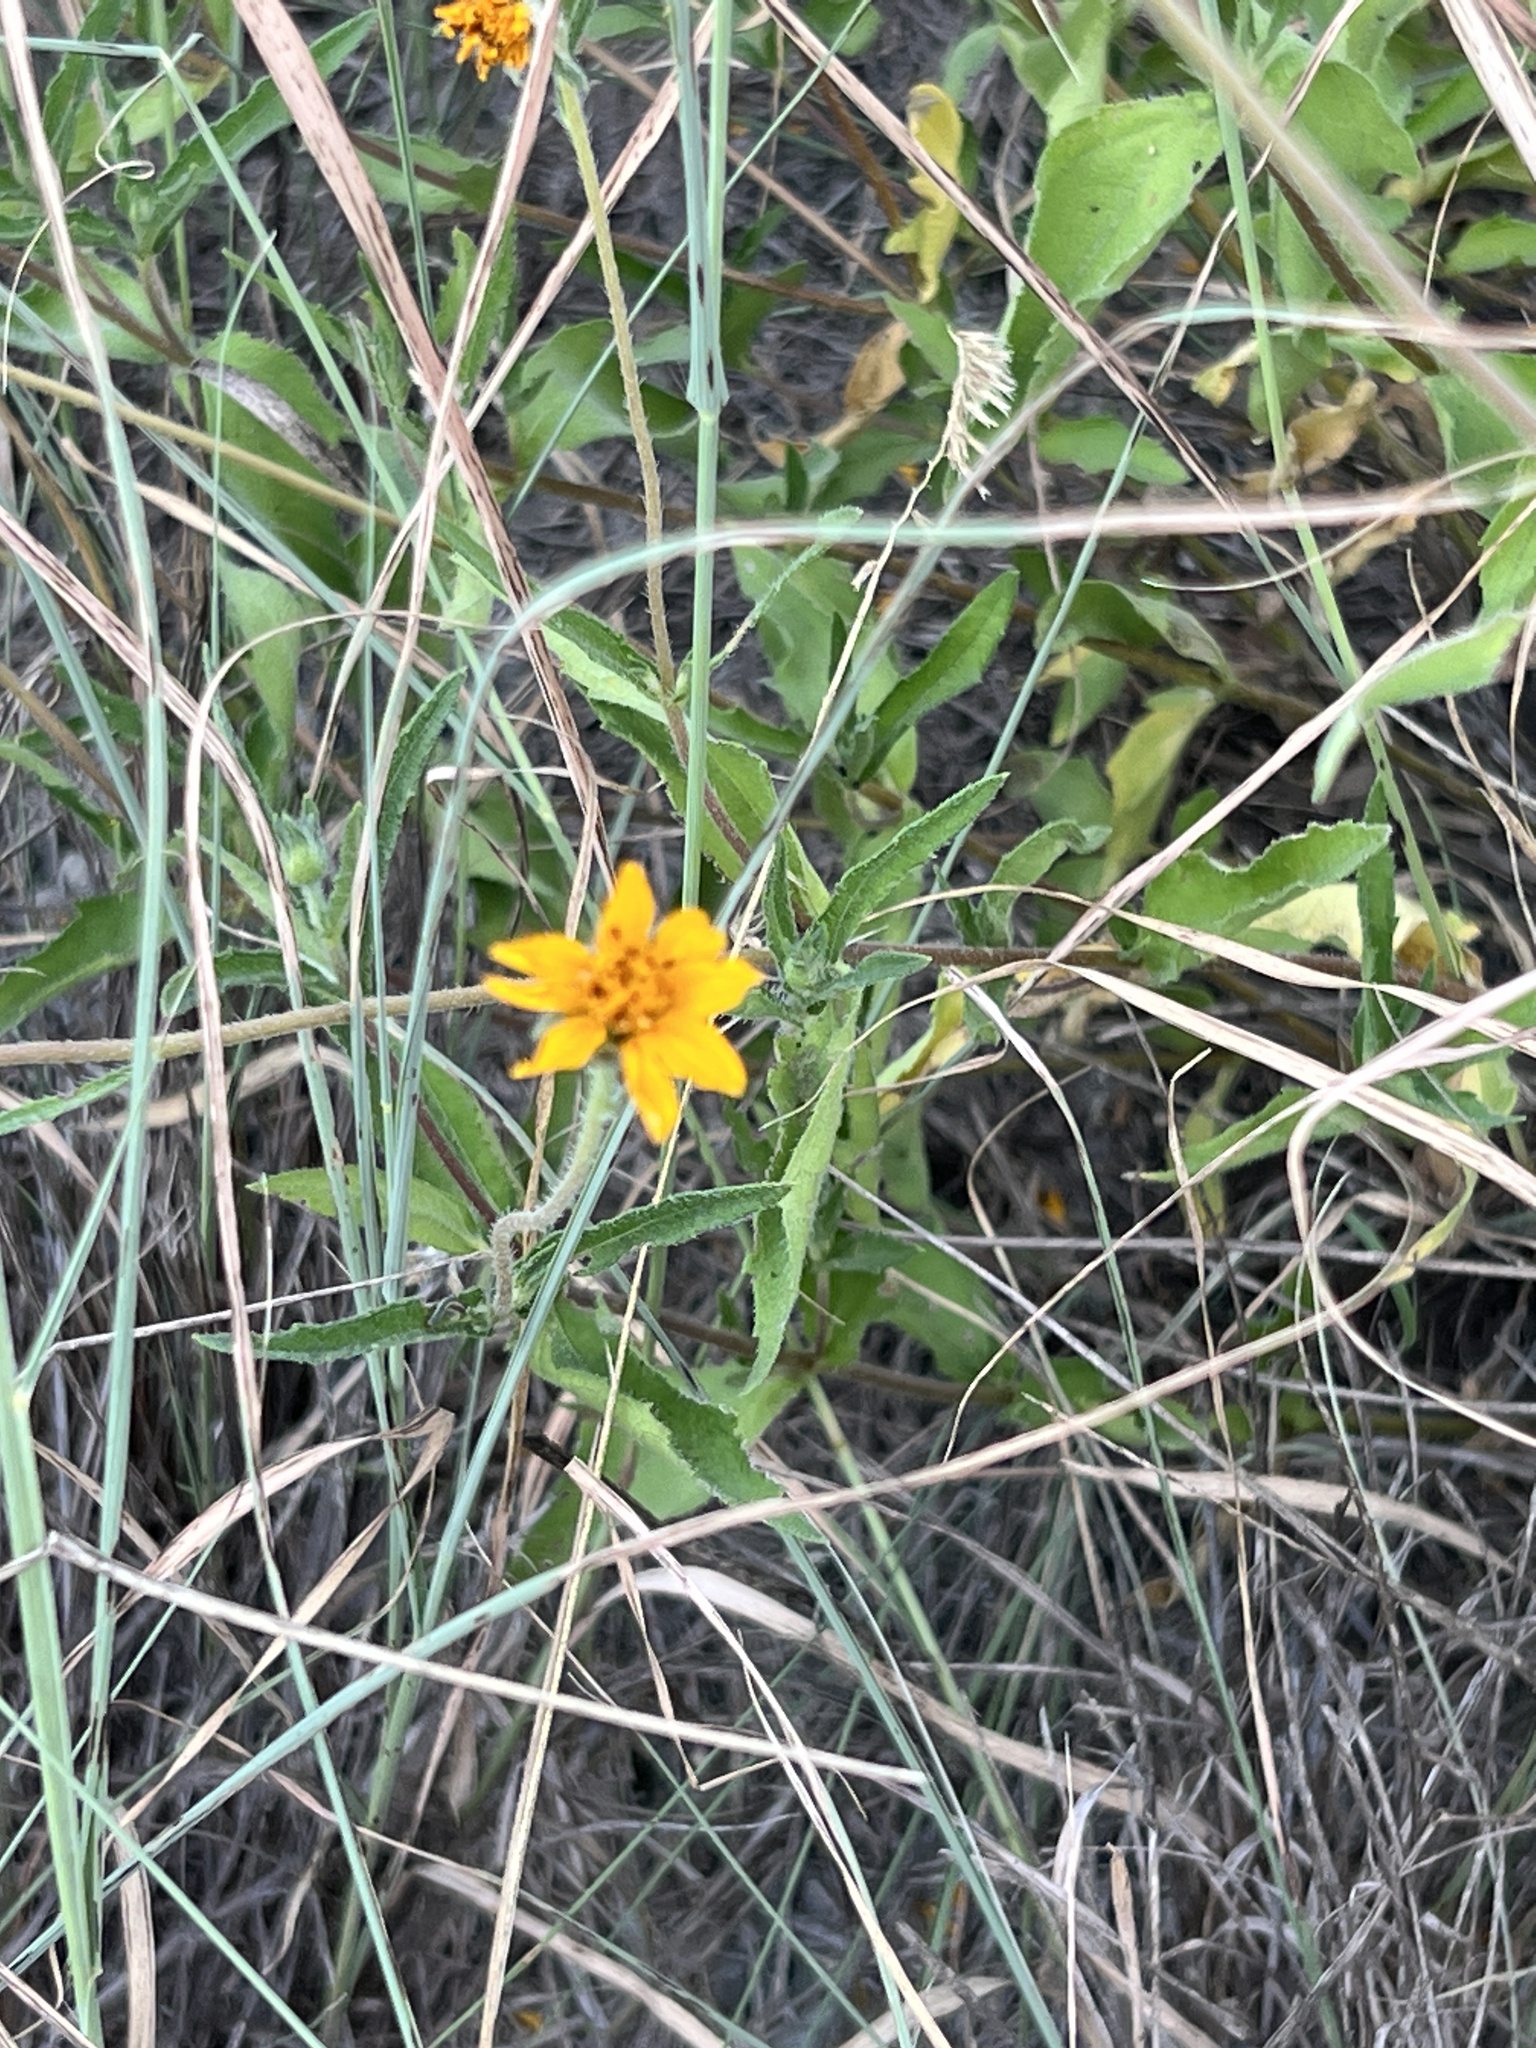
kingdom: Plantae
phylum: Tracheophyta
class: Magnoliopsida
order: Asterales
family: Asteraceae
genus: Wedelia
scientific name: Wedelia acapulcensis
